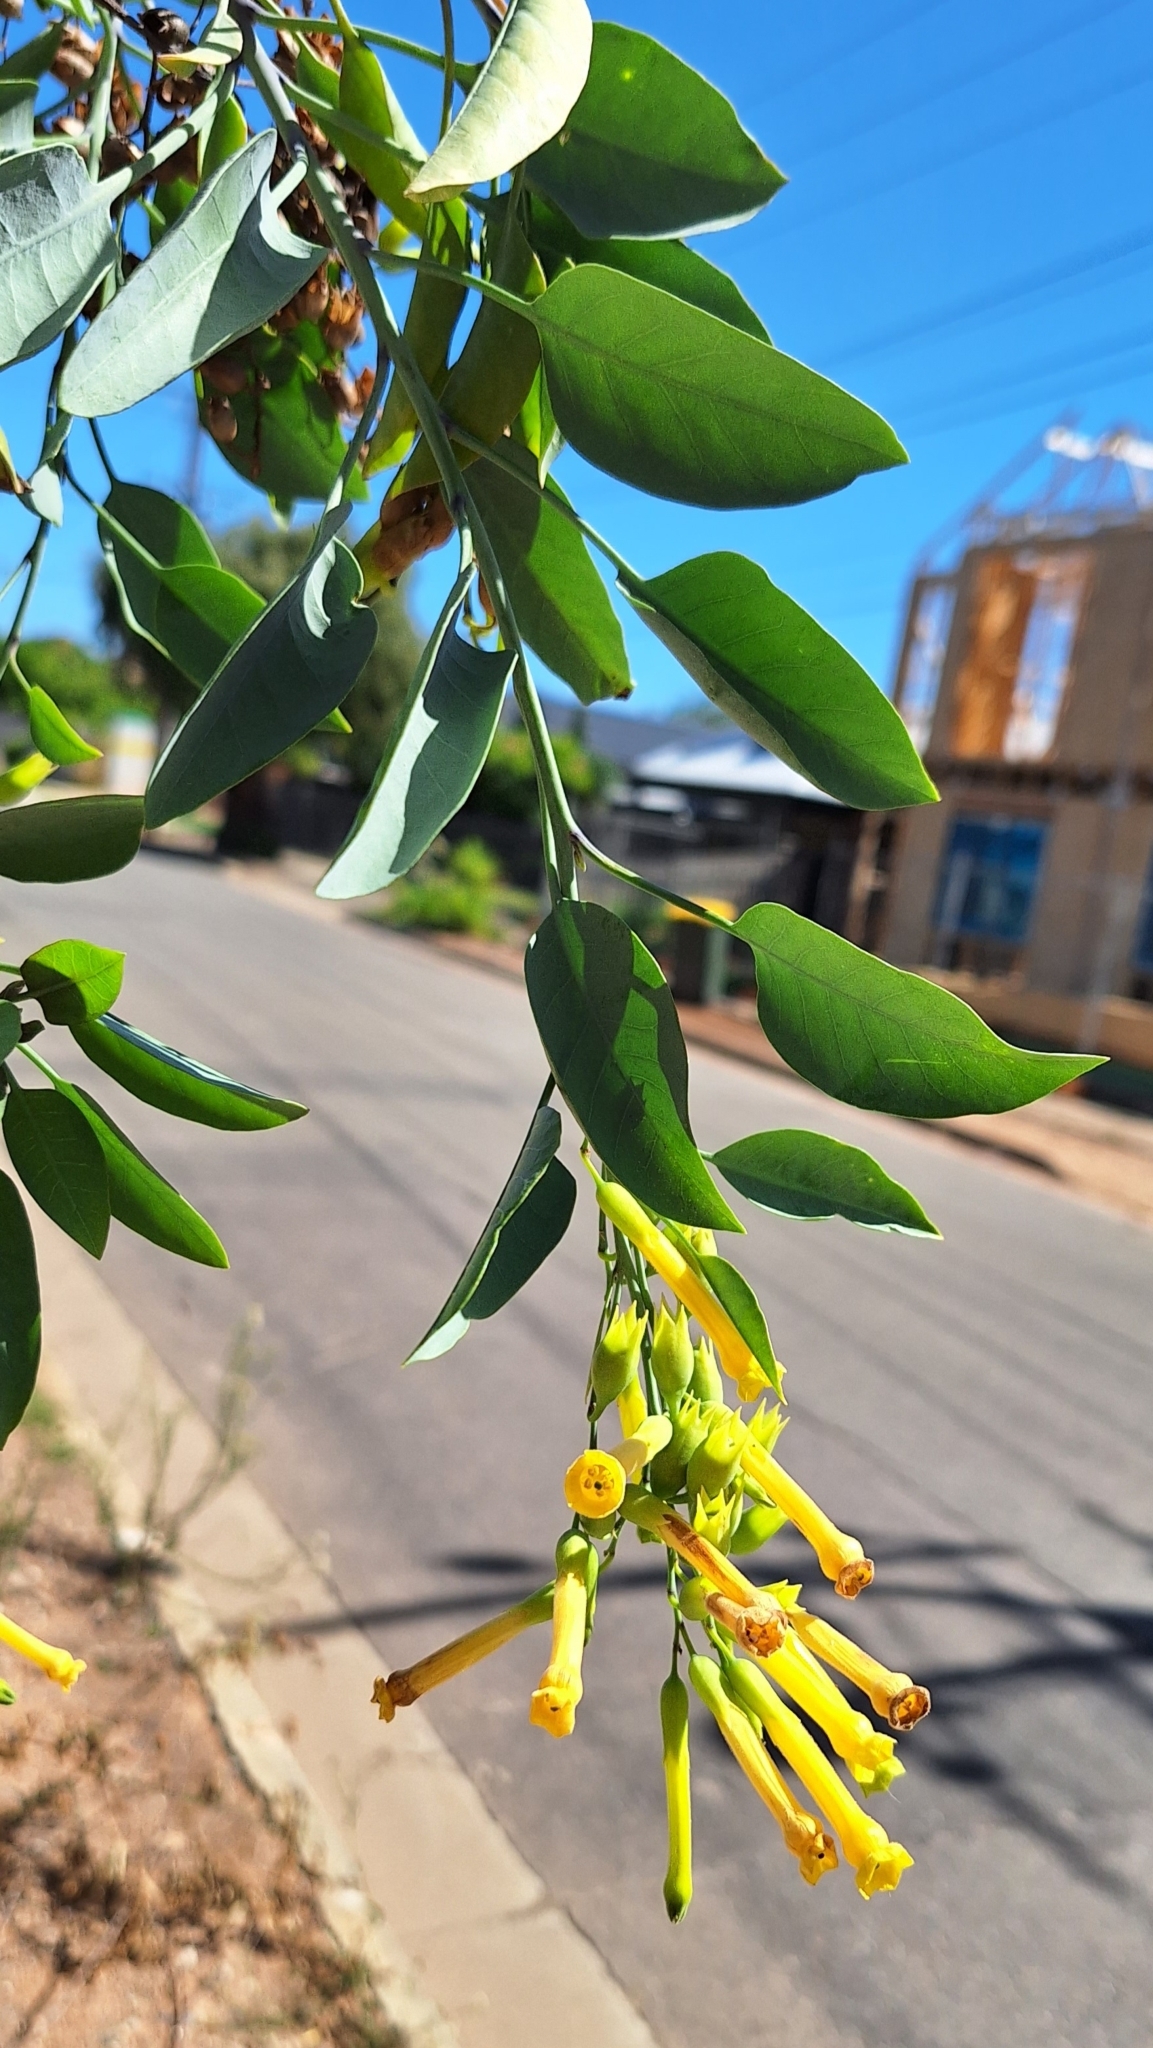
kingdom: Plantae
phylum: Tracheophyta
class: Magnoliopsida
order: Solanales
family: Solanaceae
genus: Nicotiana
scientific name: Nicotiana glauca
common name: Tree tobacco
